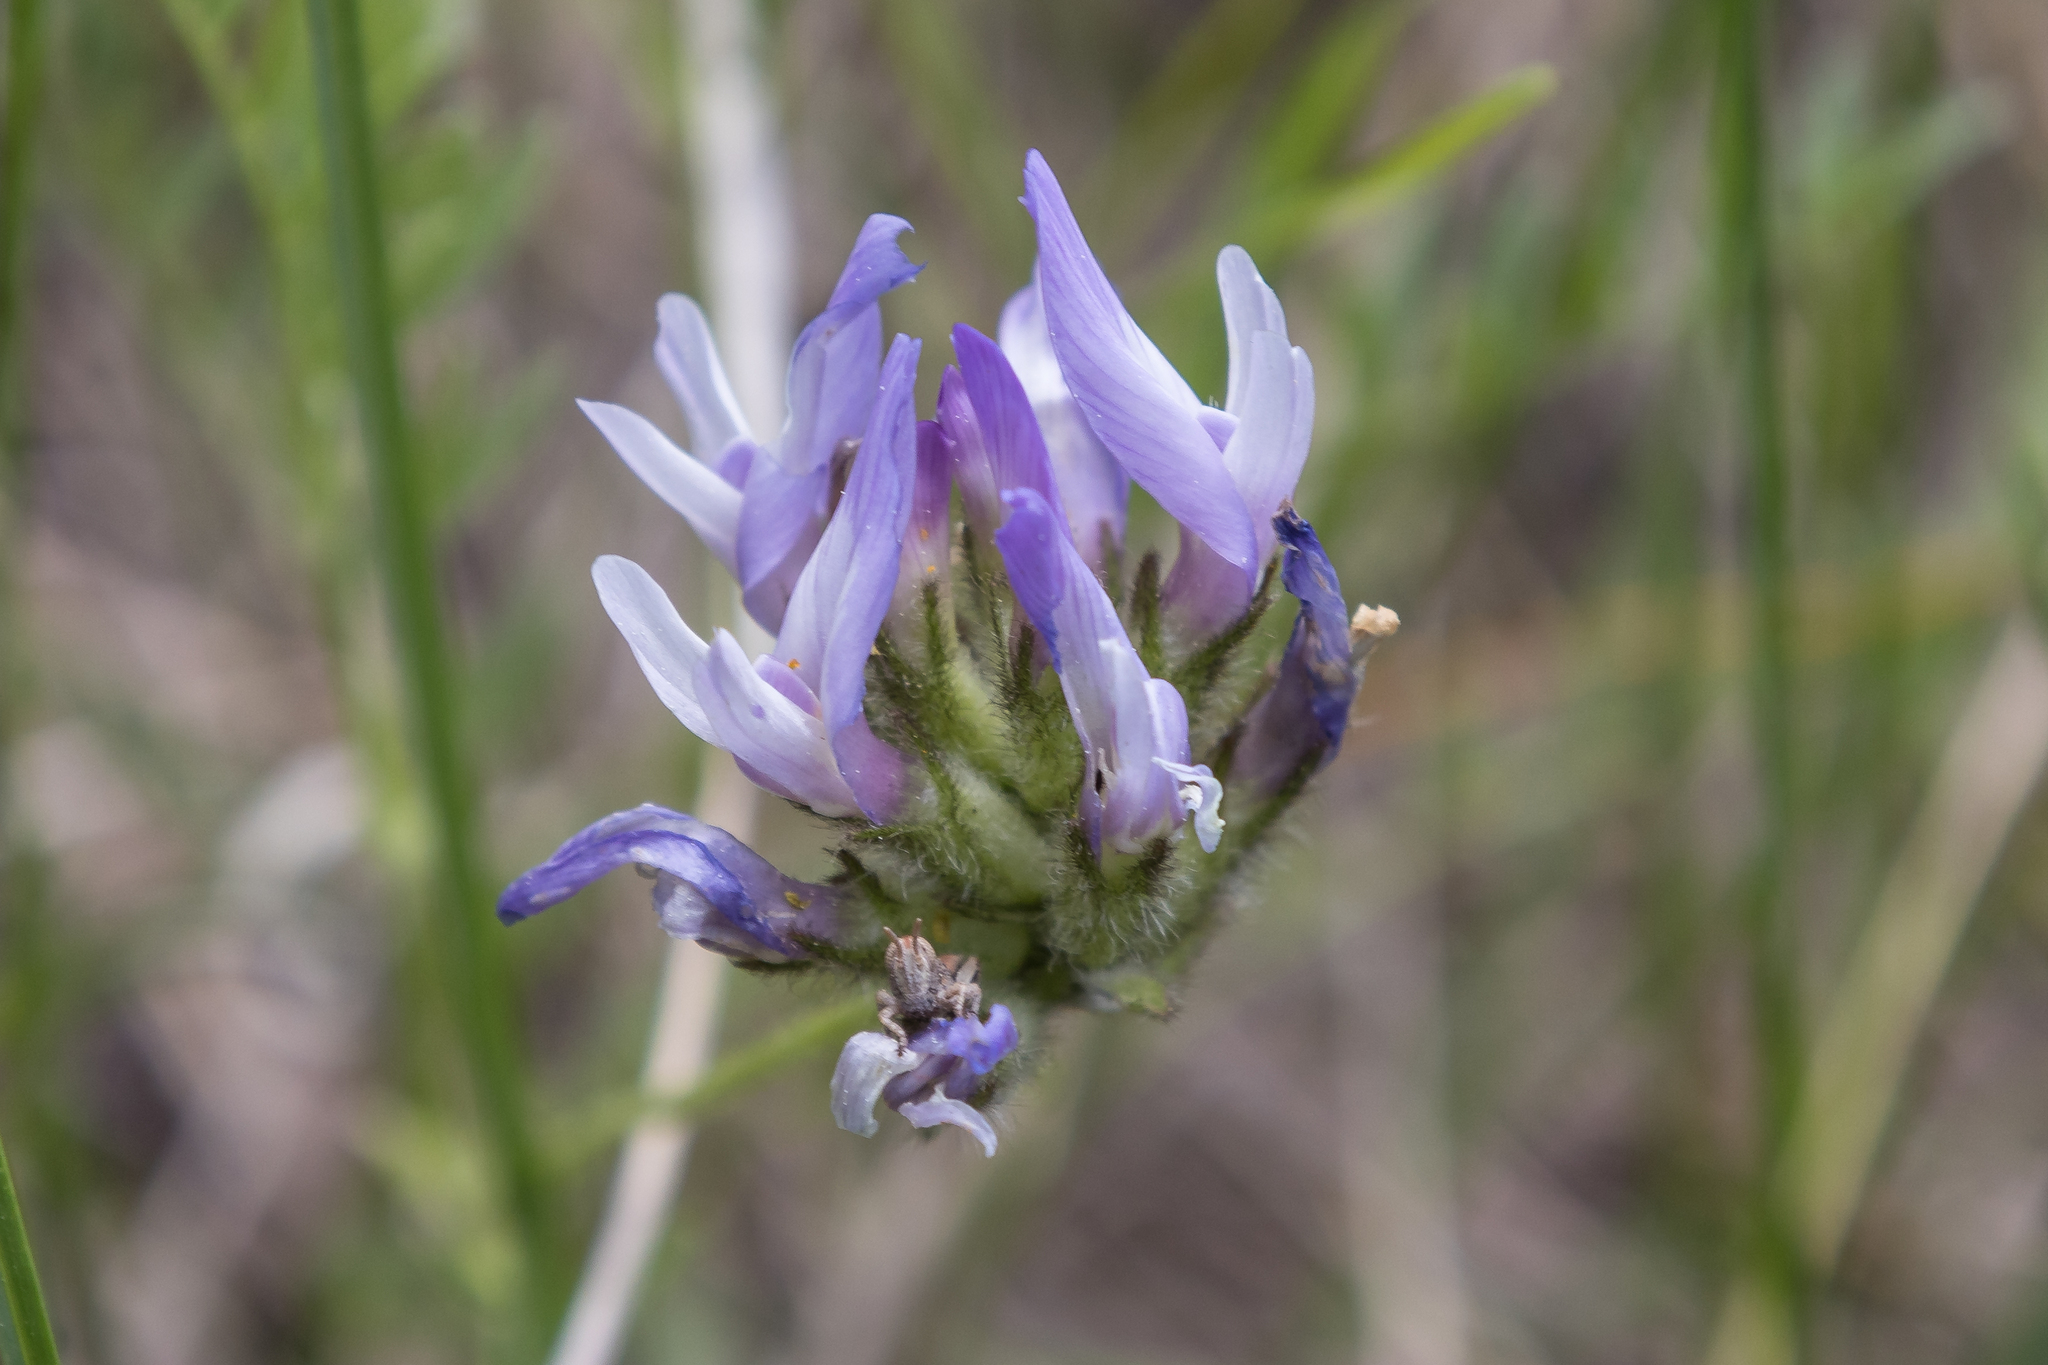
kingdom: Plantae
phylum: Tracheophyta
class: Magnoliopsida
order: Fabales
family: Fabaceae
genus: Astragalus
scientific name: Astragalus agrestis
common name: Field milk-vetch
